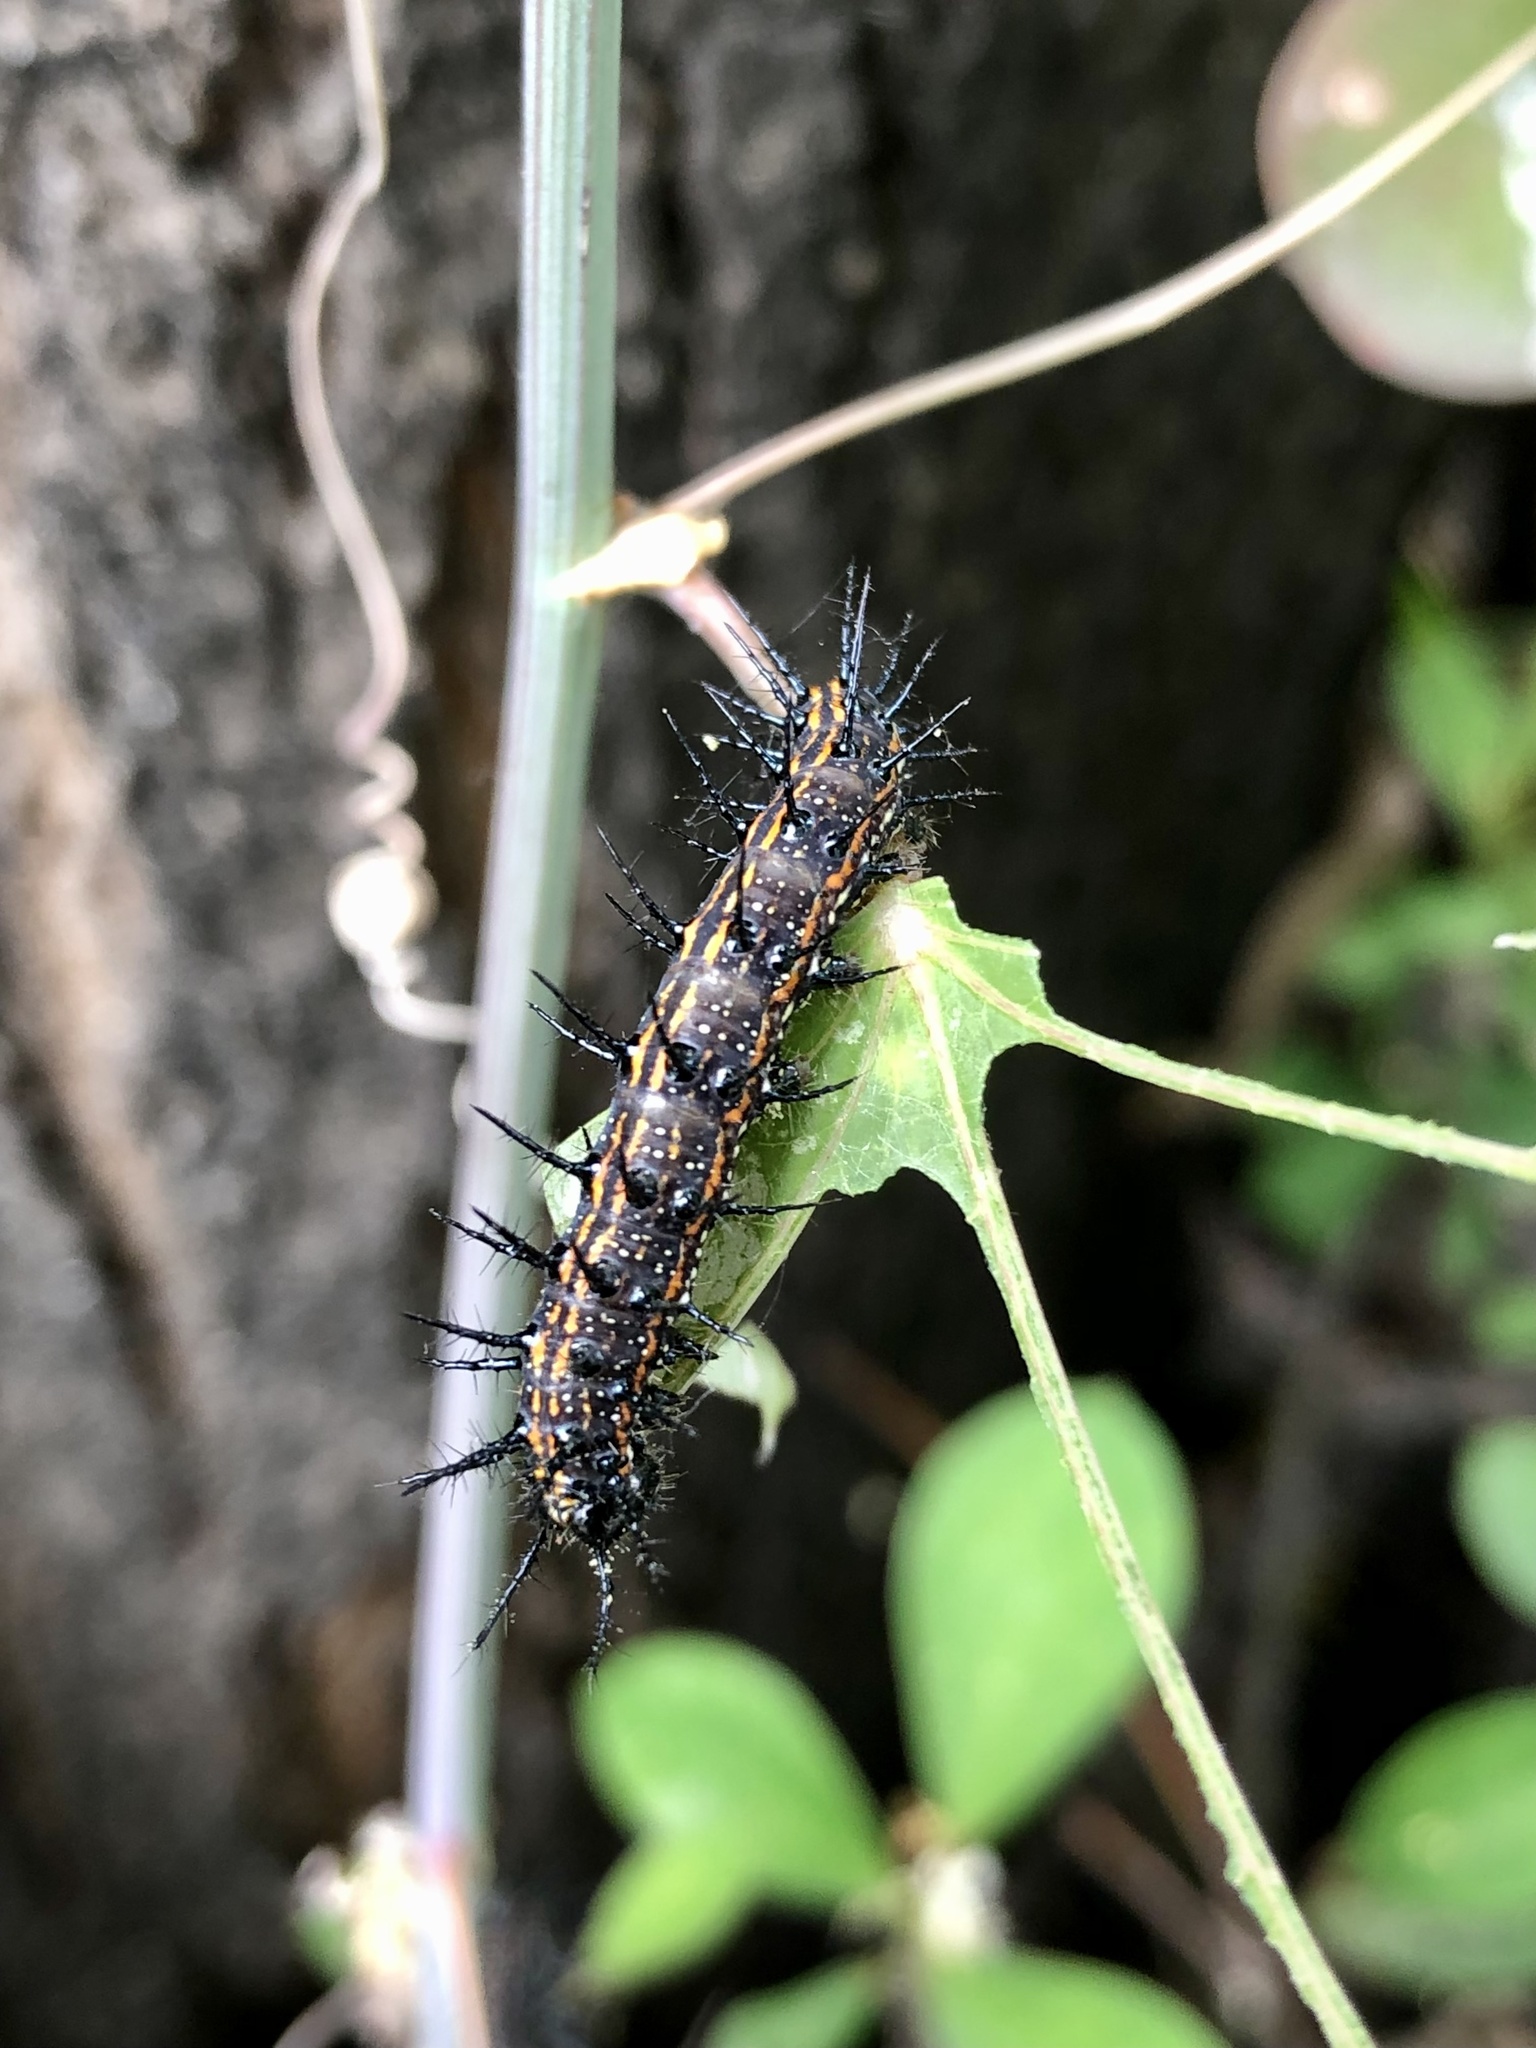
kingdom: Animalia
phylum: Arthropoda
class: Insecta
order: Lepidoptera
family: Nymphalidae
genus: Dione
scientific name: Dione vanillae
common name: Gulf fritillary
